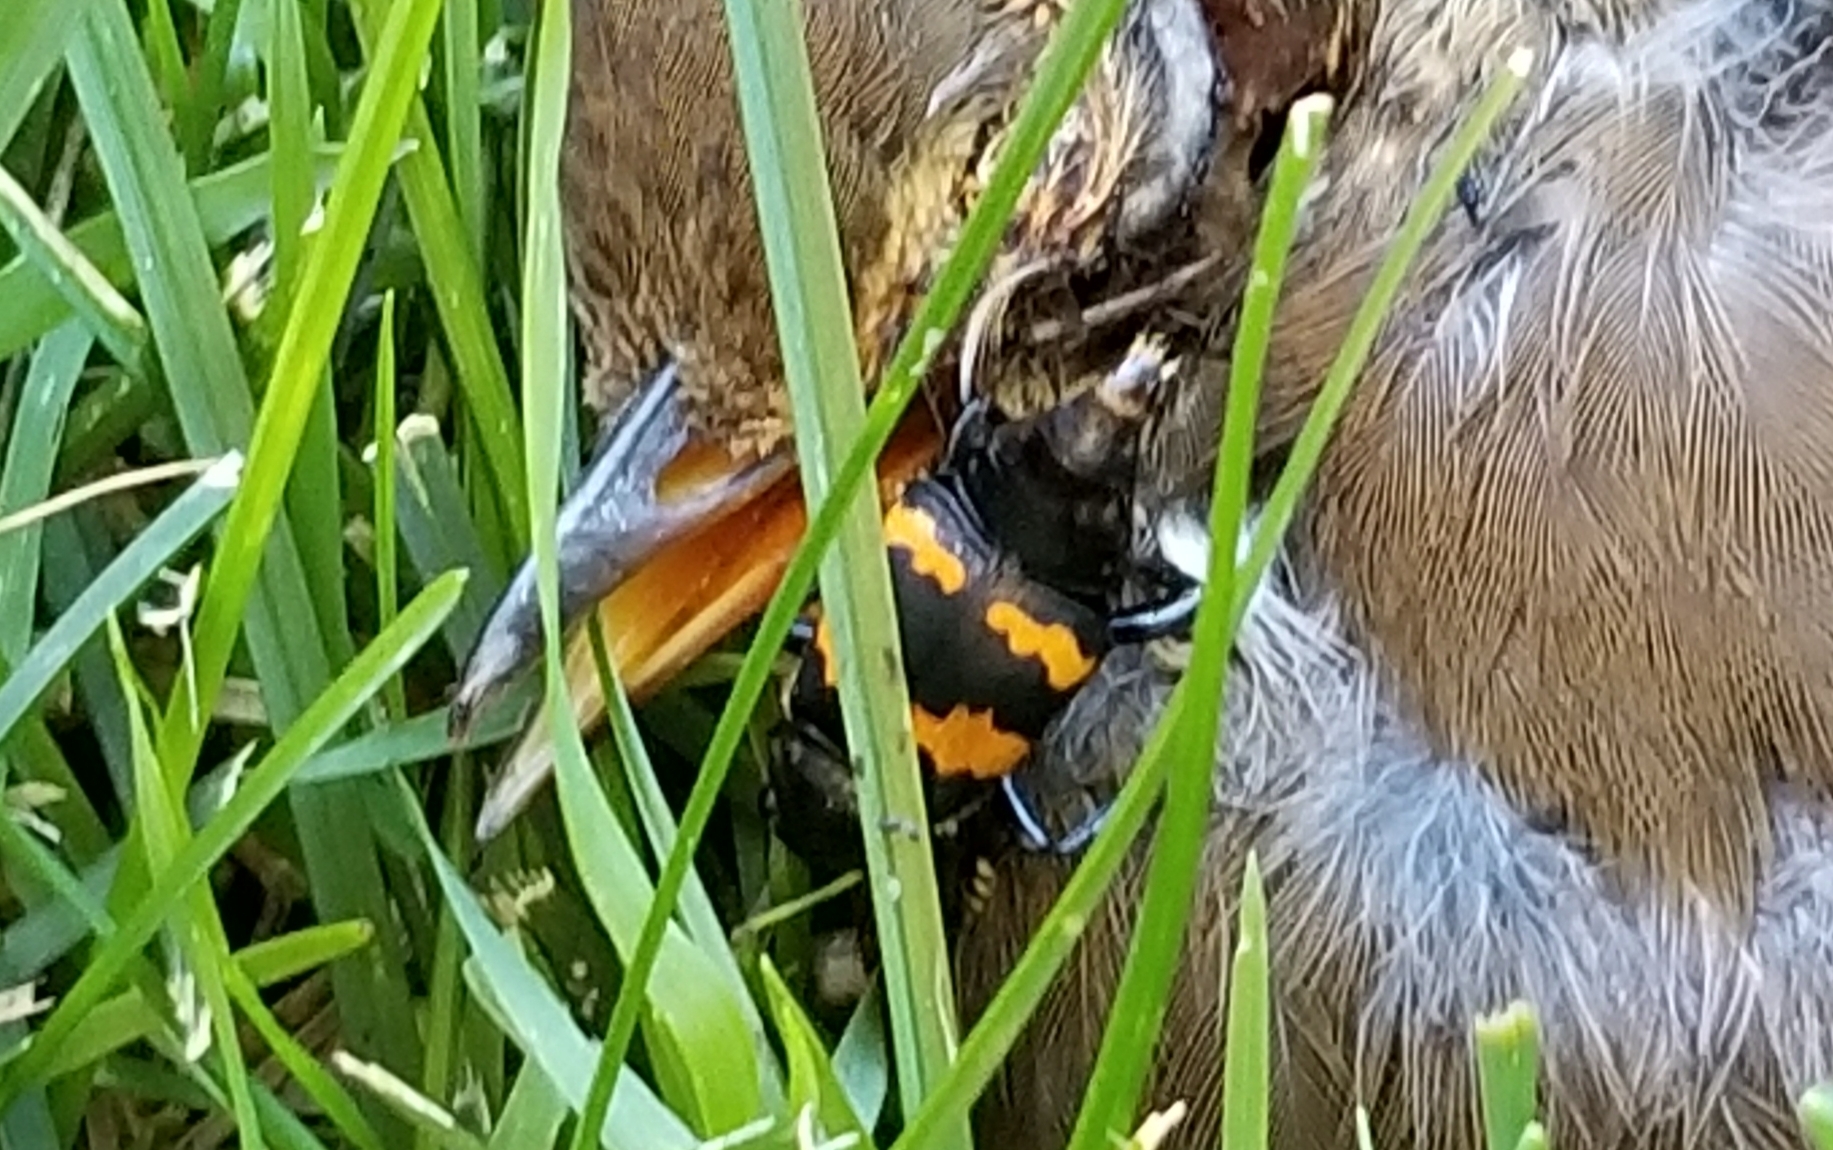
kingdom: Animalia
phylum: Arthropoda
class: Insecta
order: Coleoptera
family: Staphylinidae
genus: Nicrophorus
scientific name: Nicrophorus tomentosus
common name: Tomentose burying beetle
